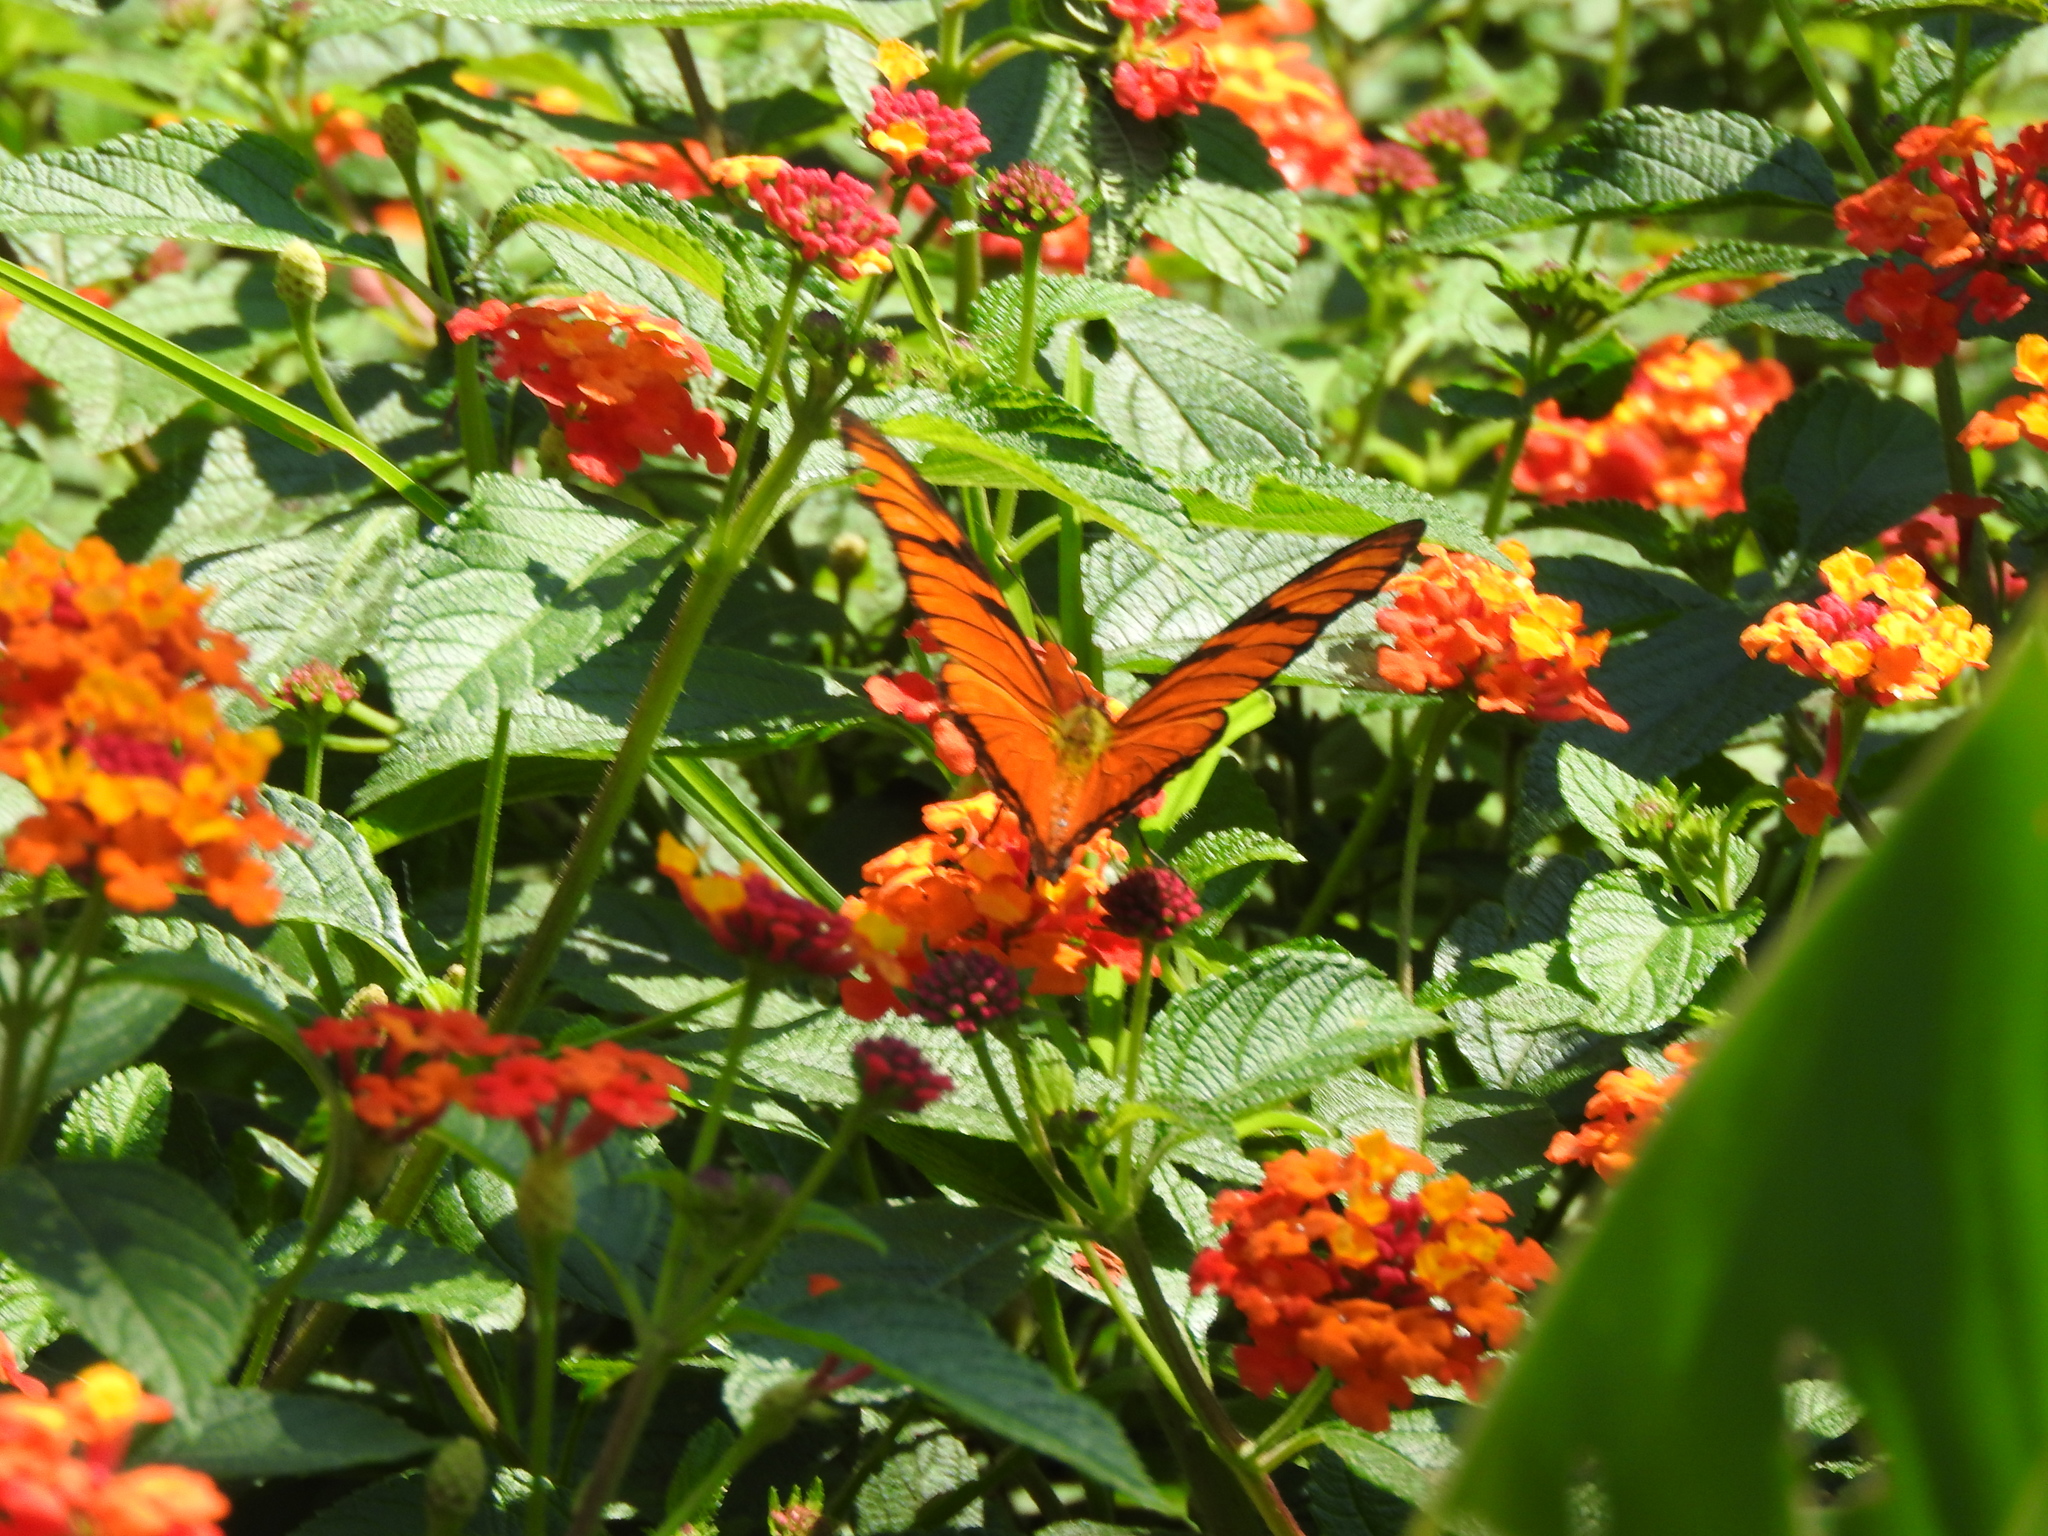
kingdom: Animalia
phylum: Arthropoda
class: Insecta
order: Lepidoptera
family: Nymphalidae
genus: Dione
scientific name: Dione juno
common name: Juno silverspot
